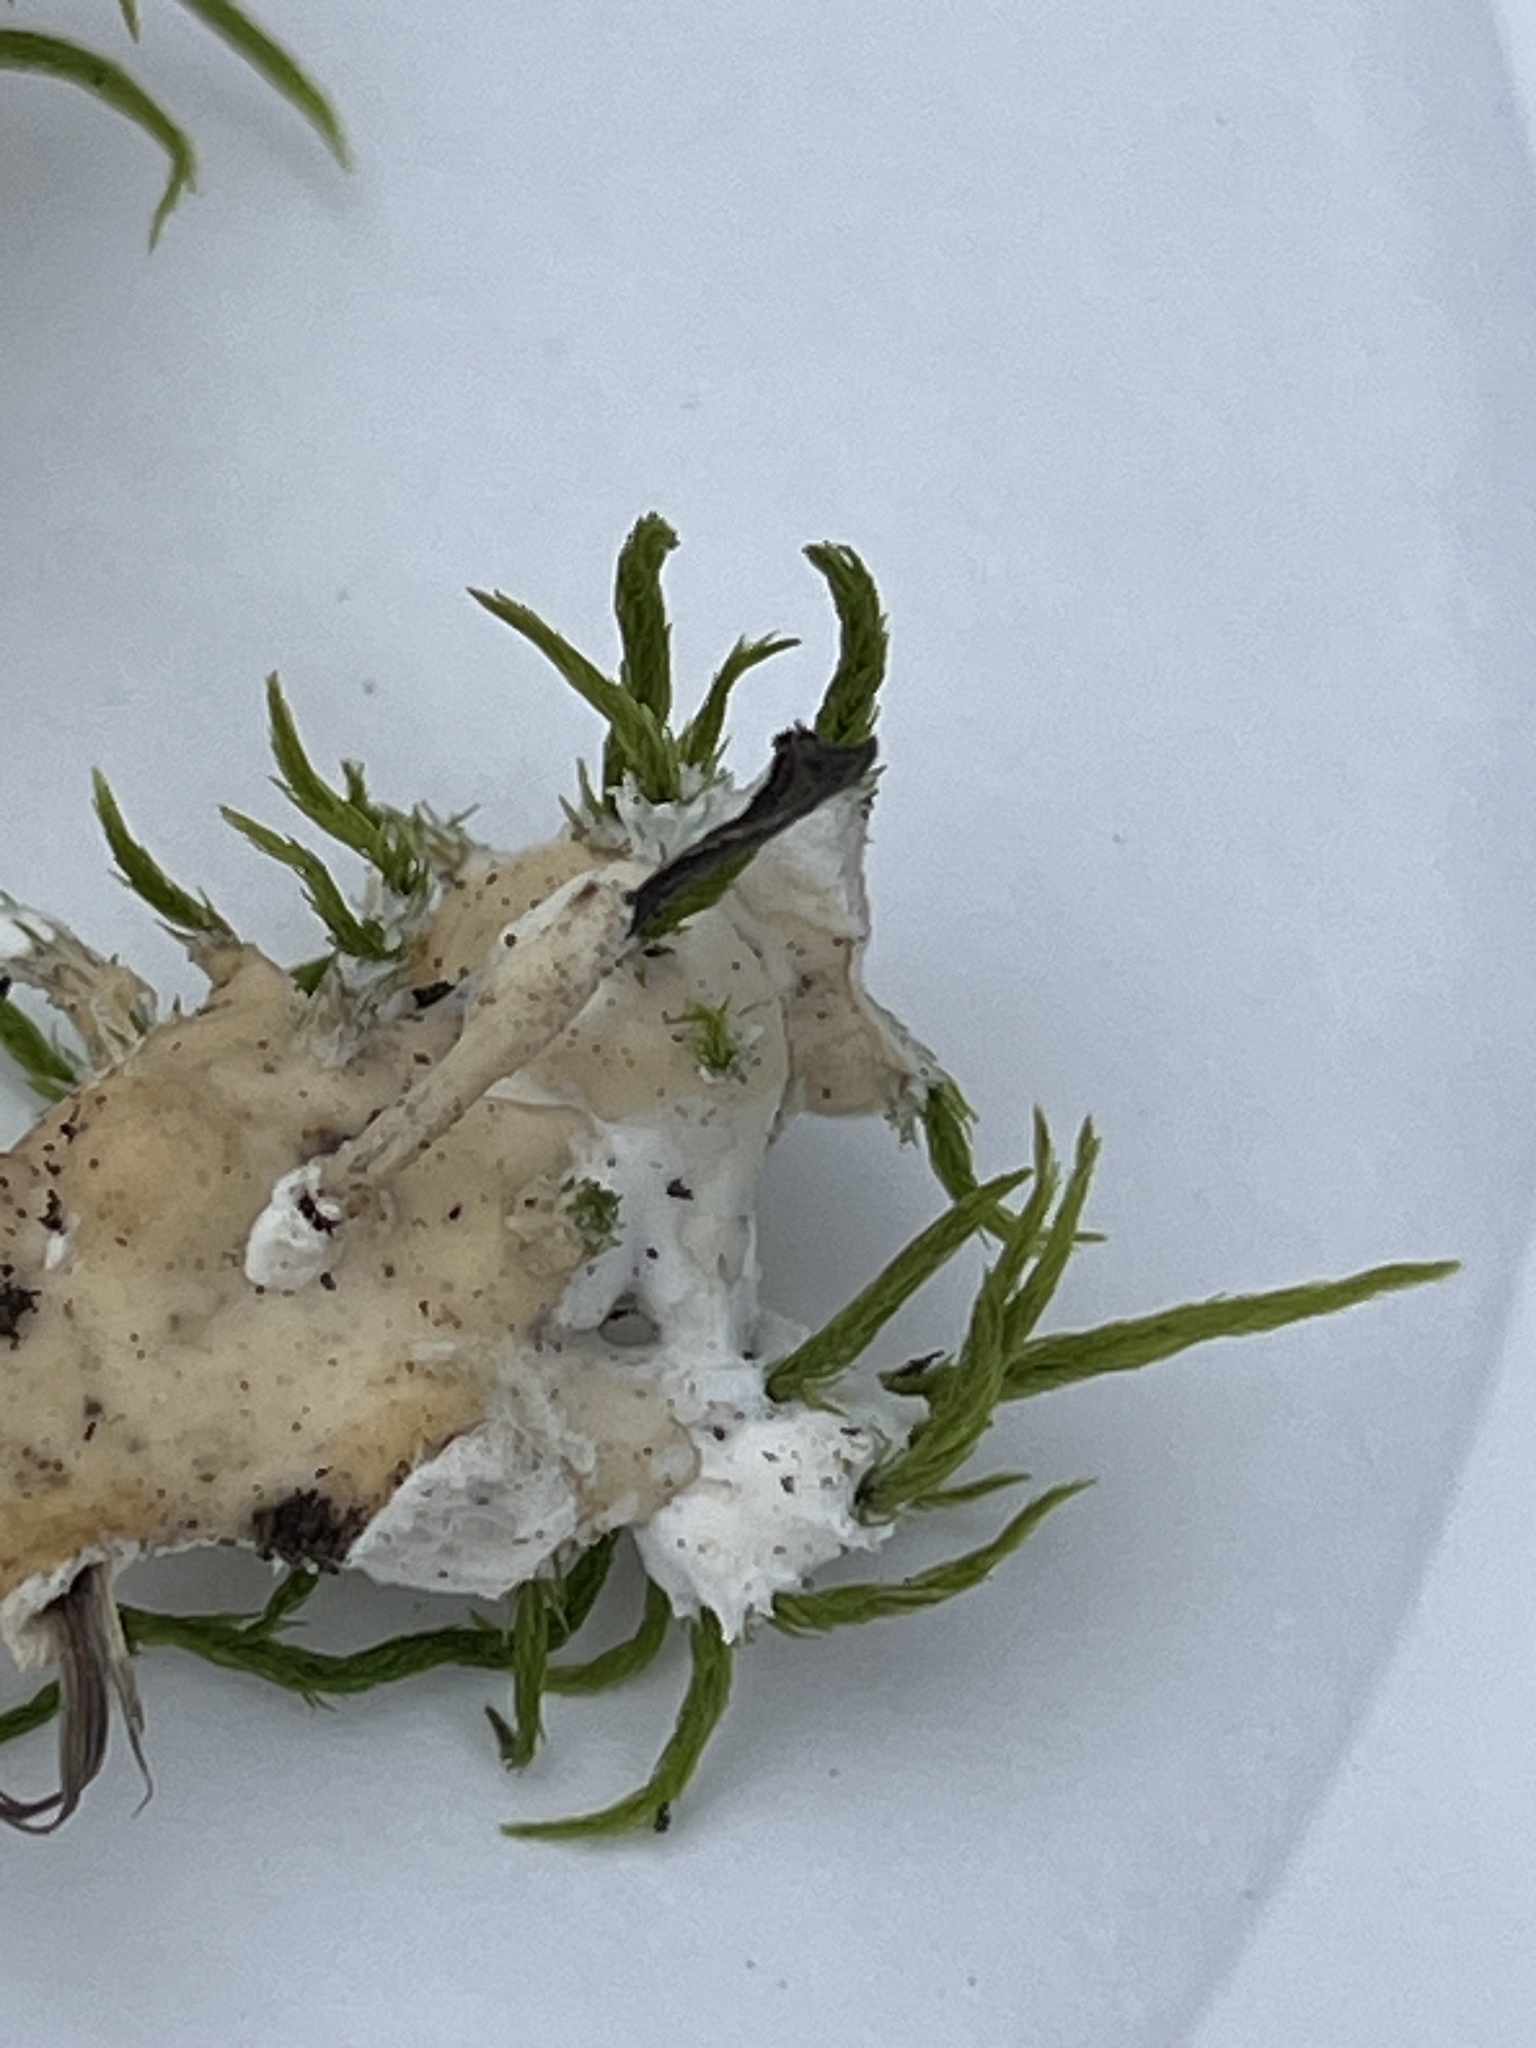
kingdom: Fungi
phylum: Basidiomycota
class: Agaricomycetes
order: Sebacinales
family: Sebacinaceae
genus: Sebacina
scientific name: Sebacina incrustans
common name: Enveloping crust
